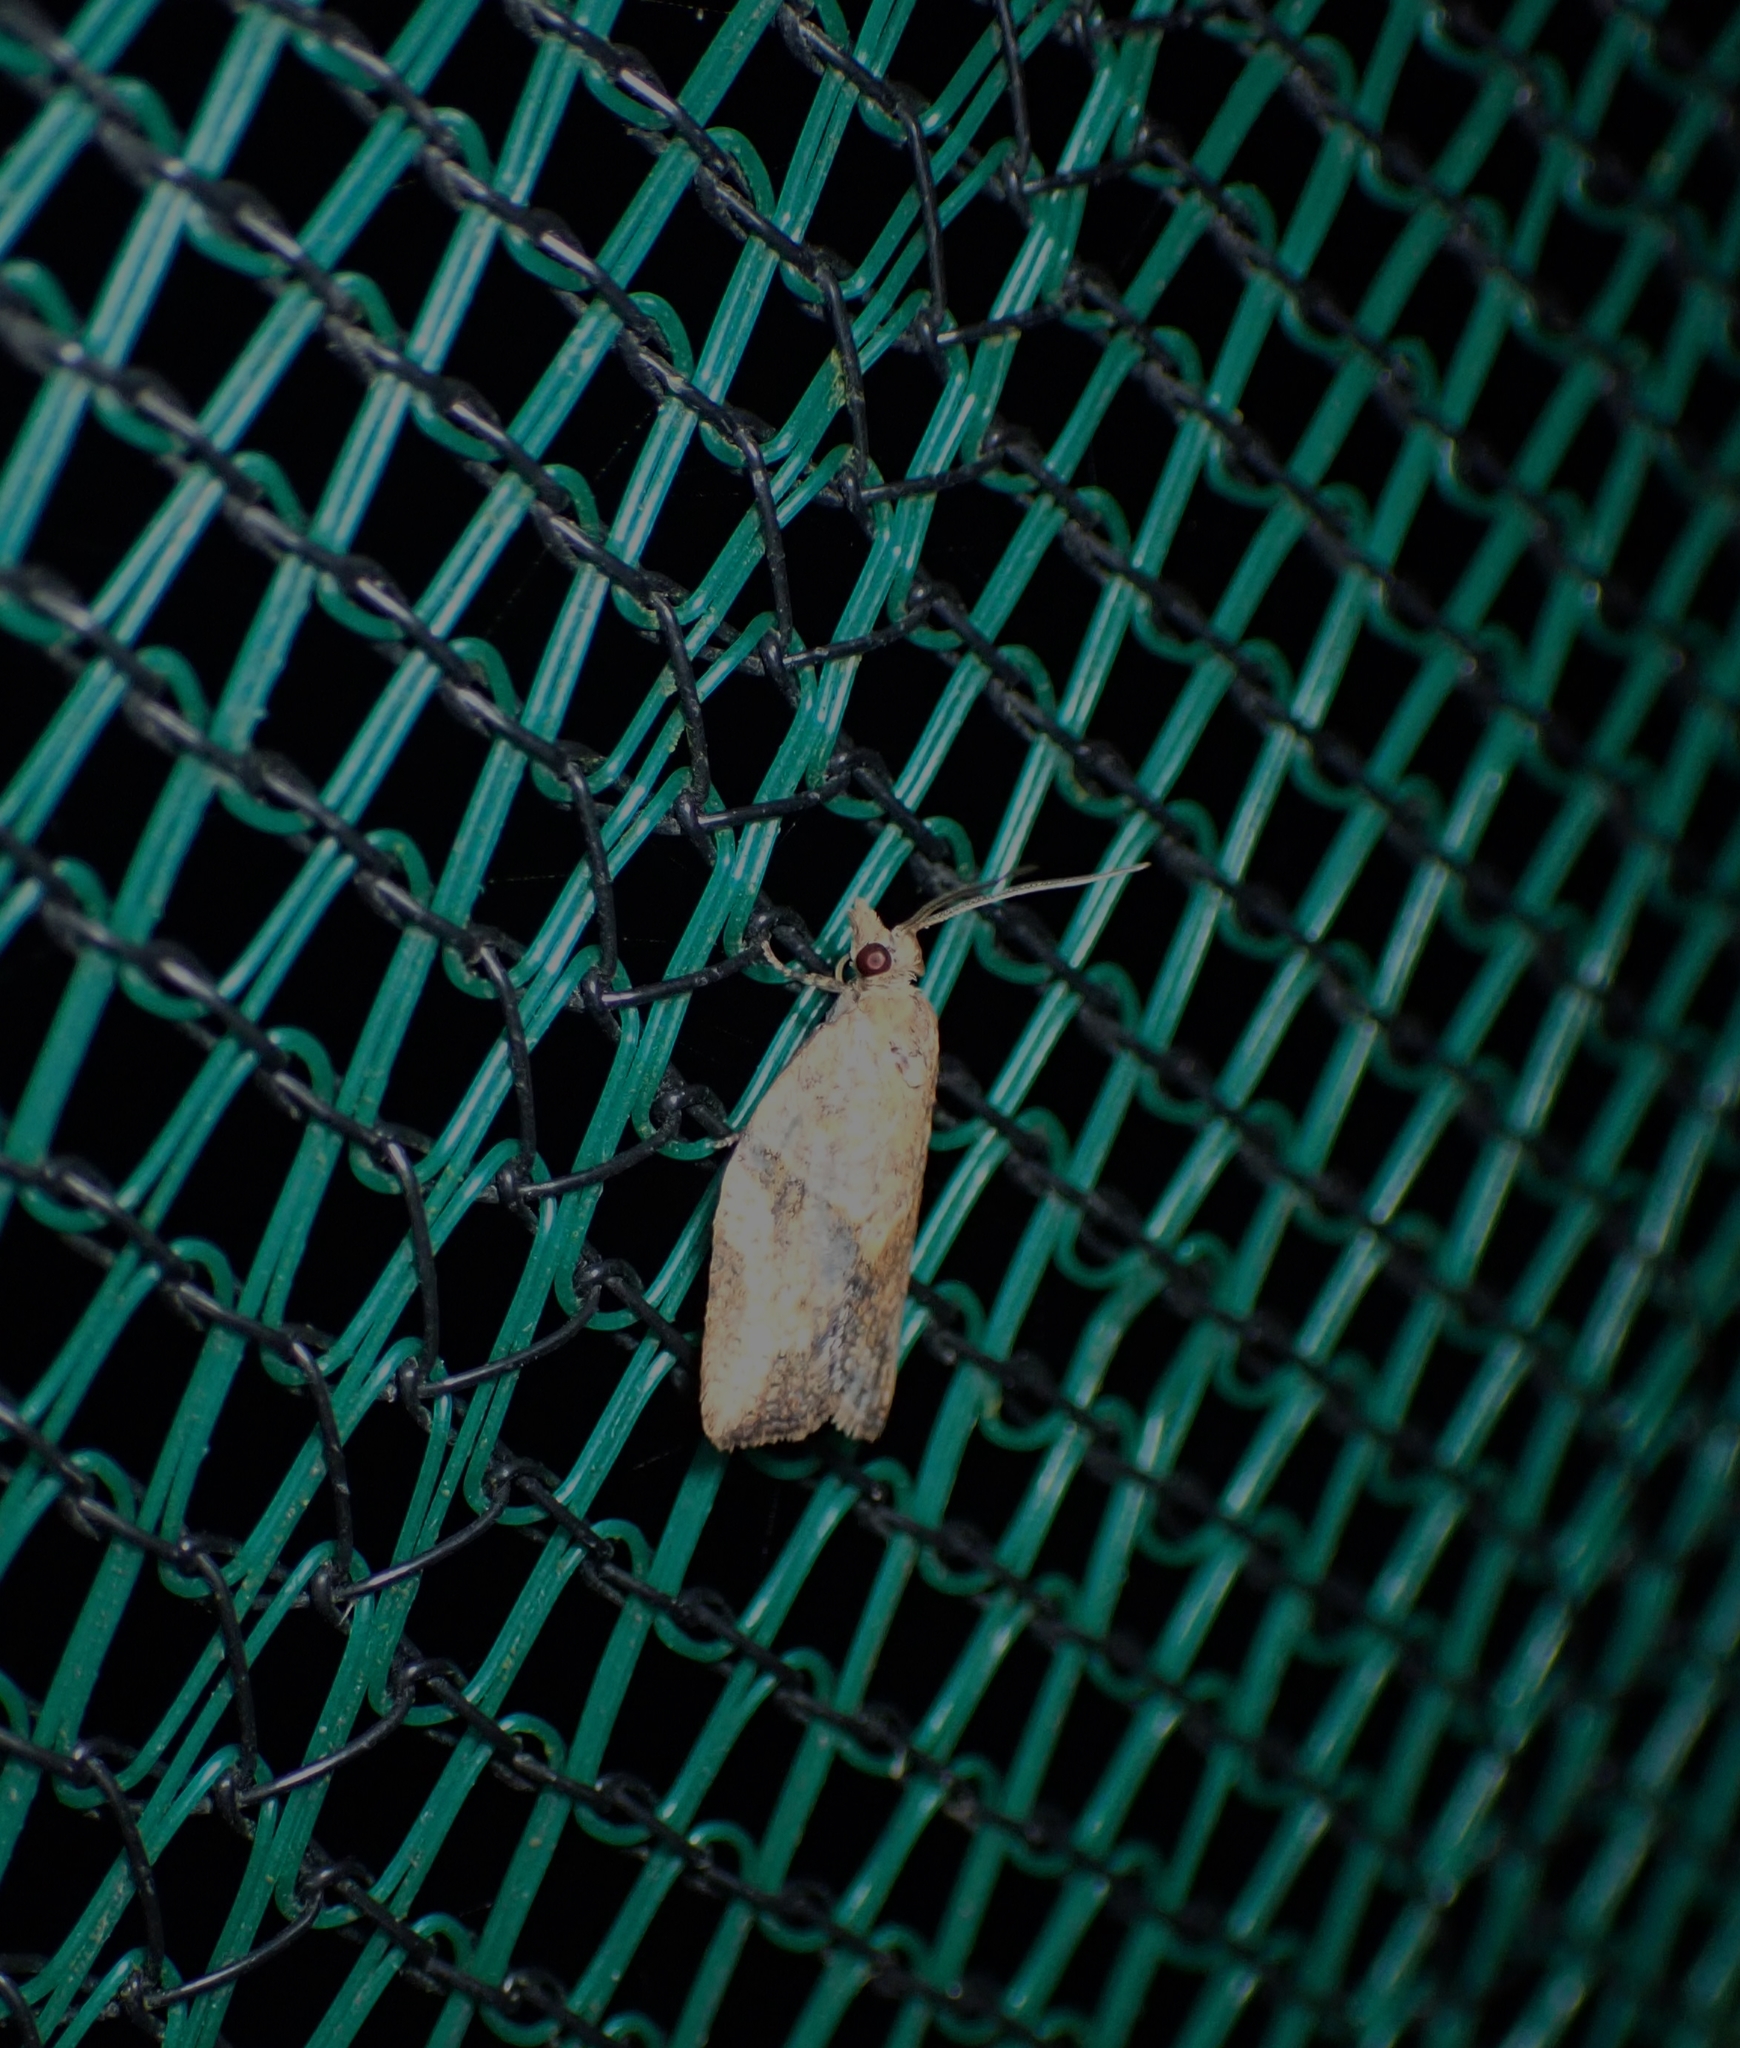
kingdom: Animalia
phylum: Arthropoda
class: Insecta
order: Lepidoptera
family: Tortricidae
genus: Epiphyas
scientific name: Epiphyas postvittana
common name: Light brown apple moth
